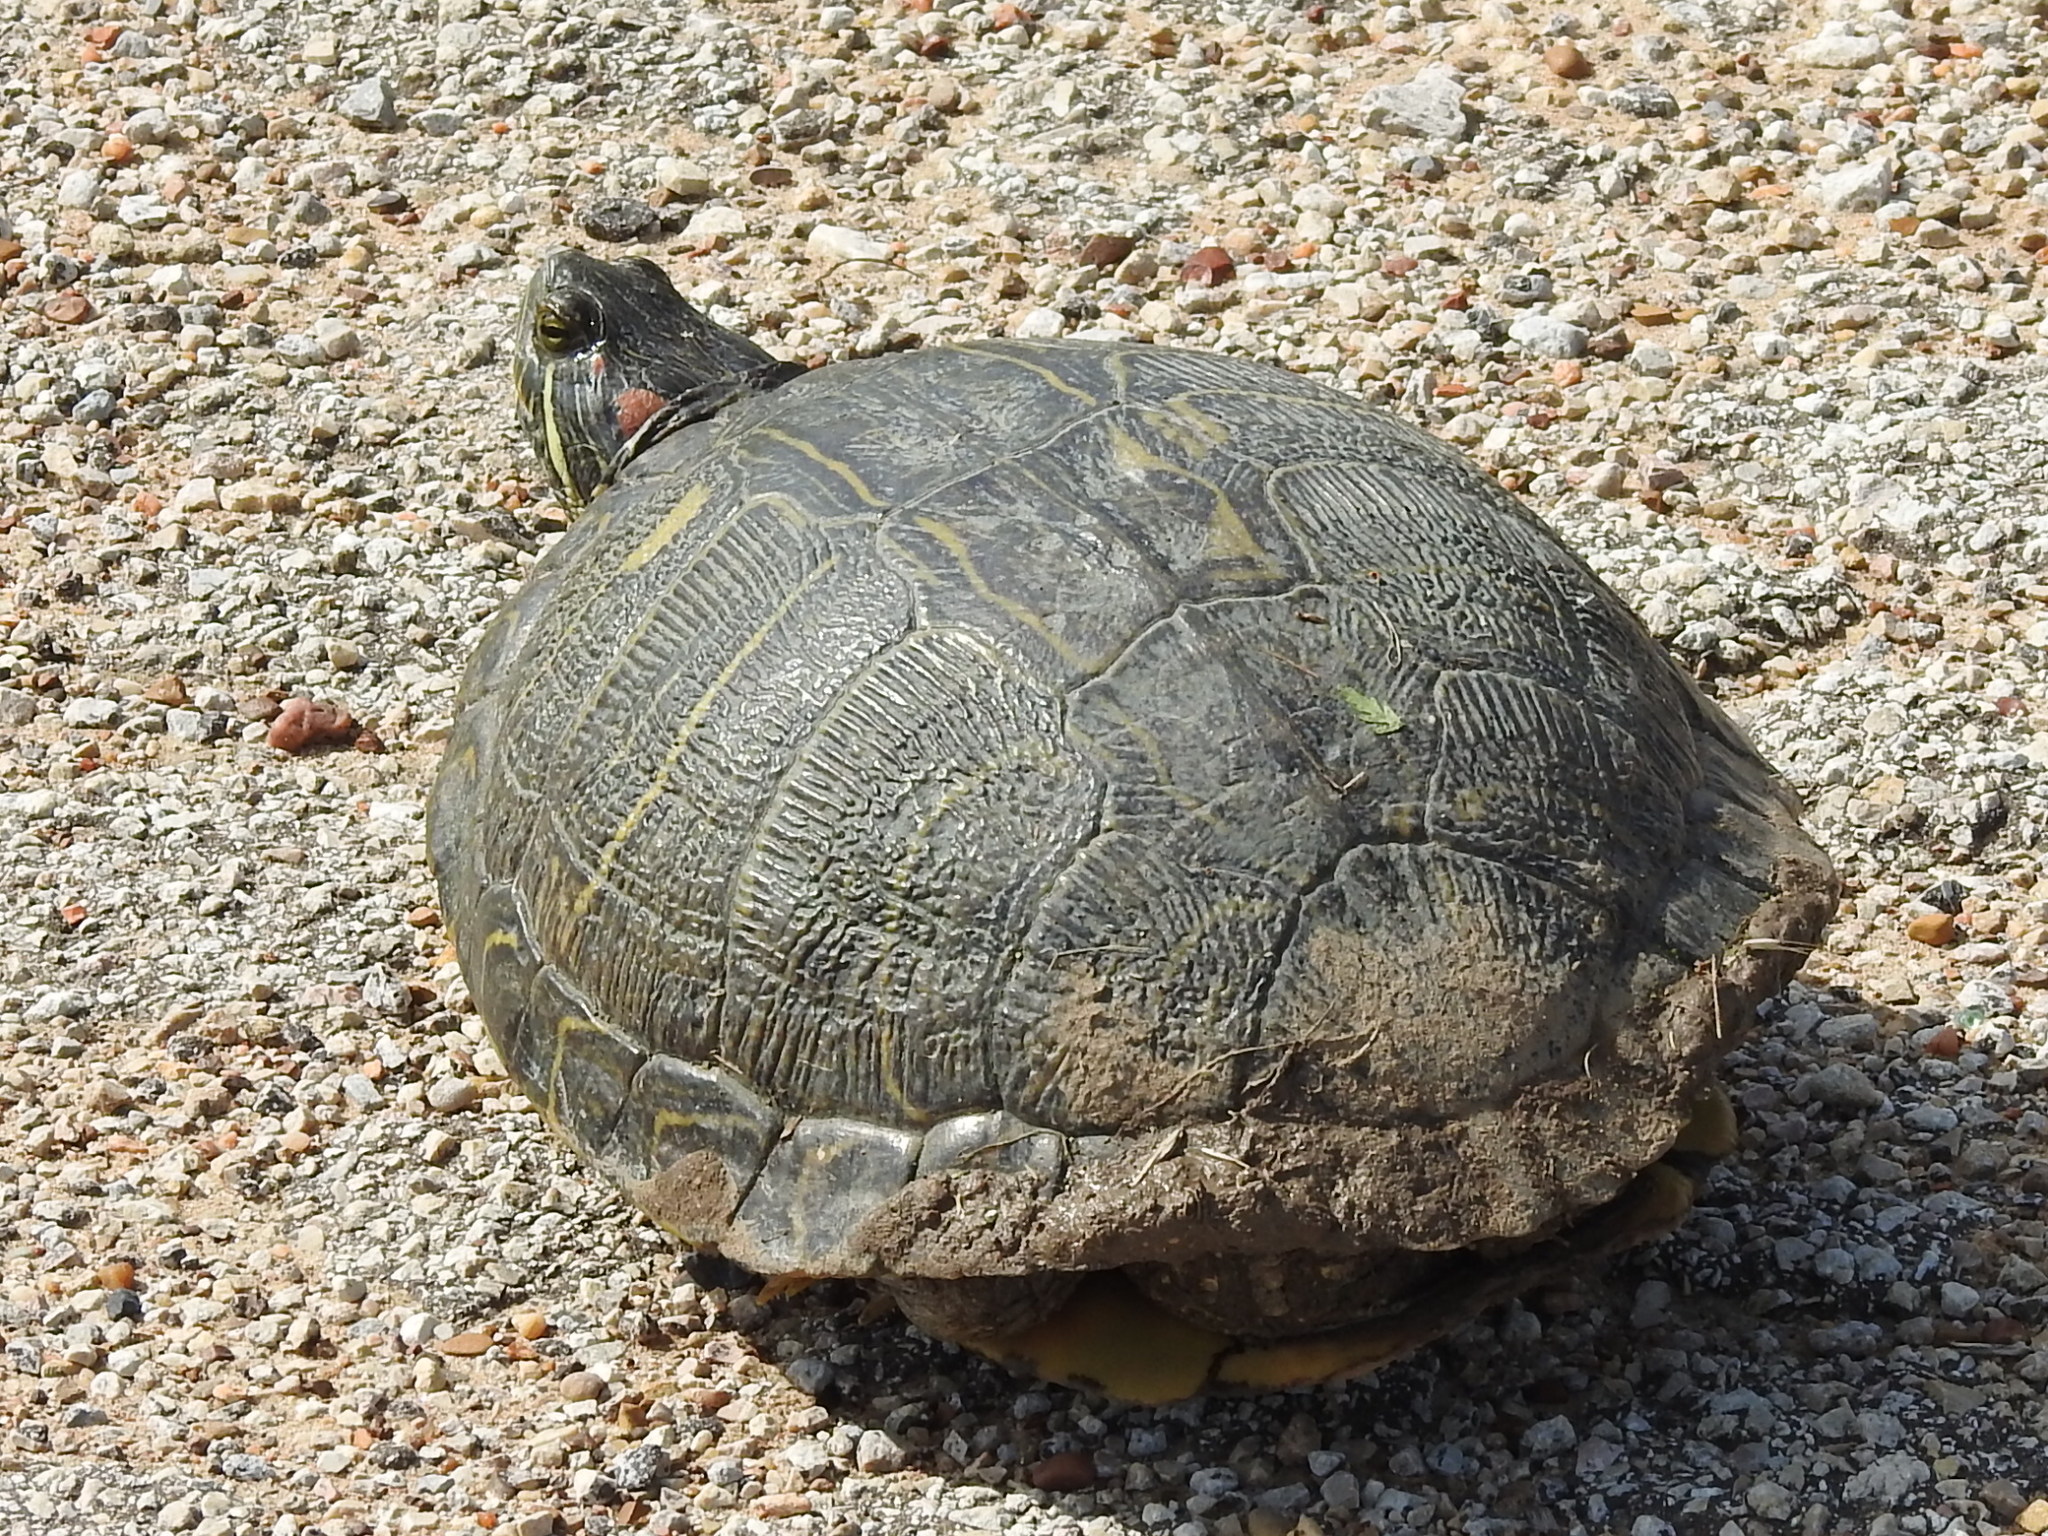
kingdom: Animalia
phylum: Chordata
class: Testudines
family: Emydidae
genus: Trachemys
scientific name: Trachemys scripta
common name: Slider
